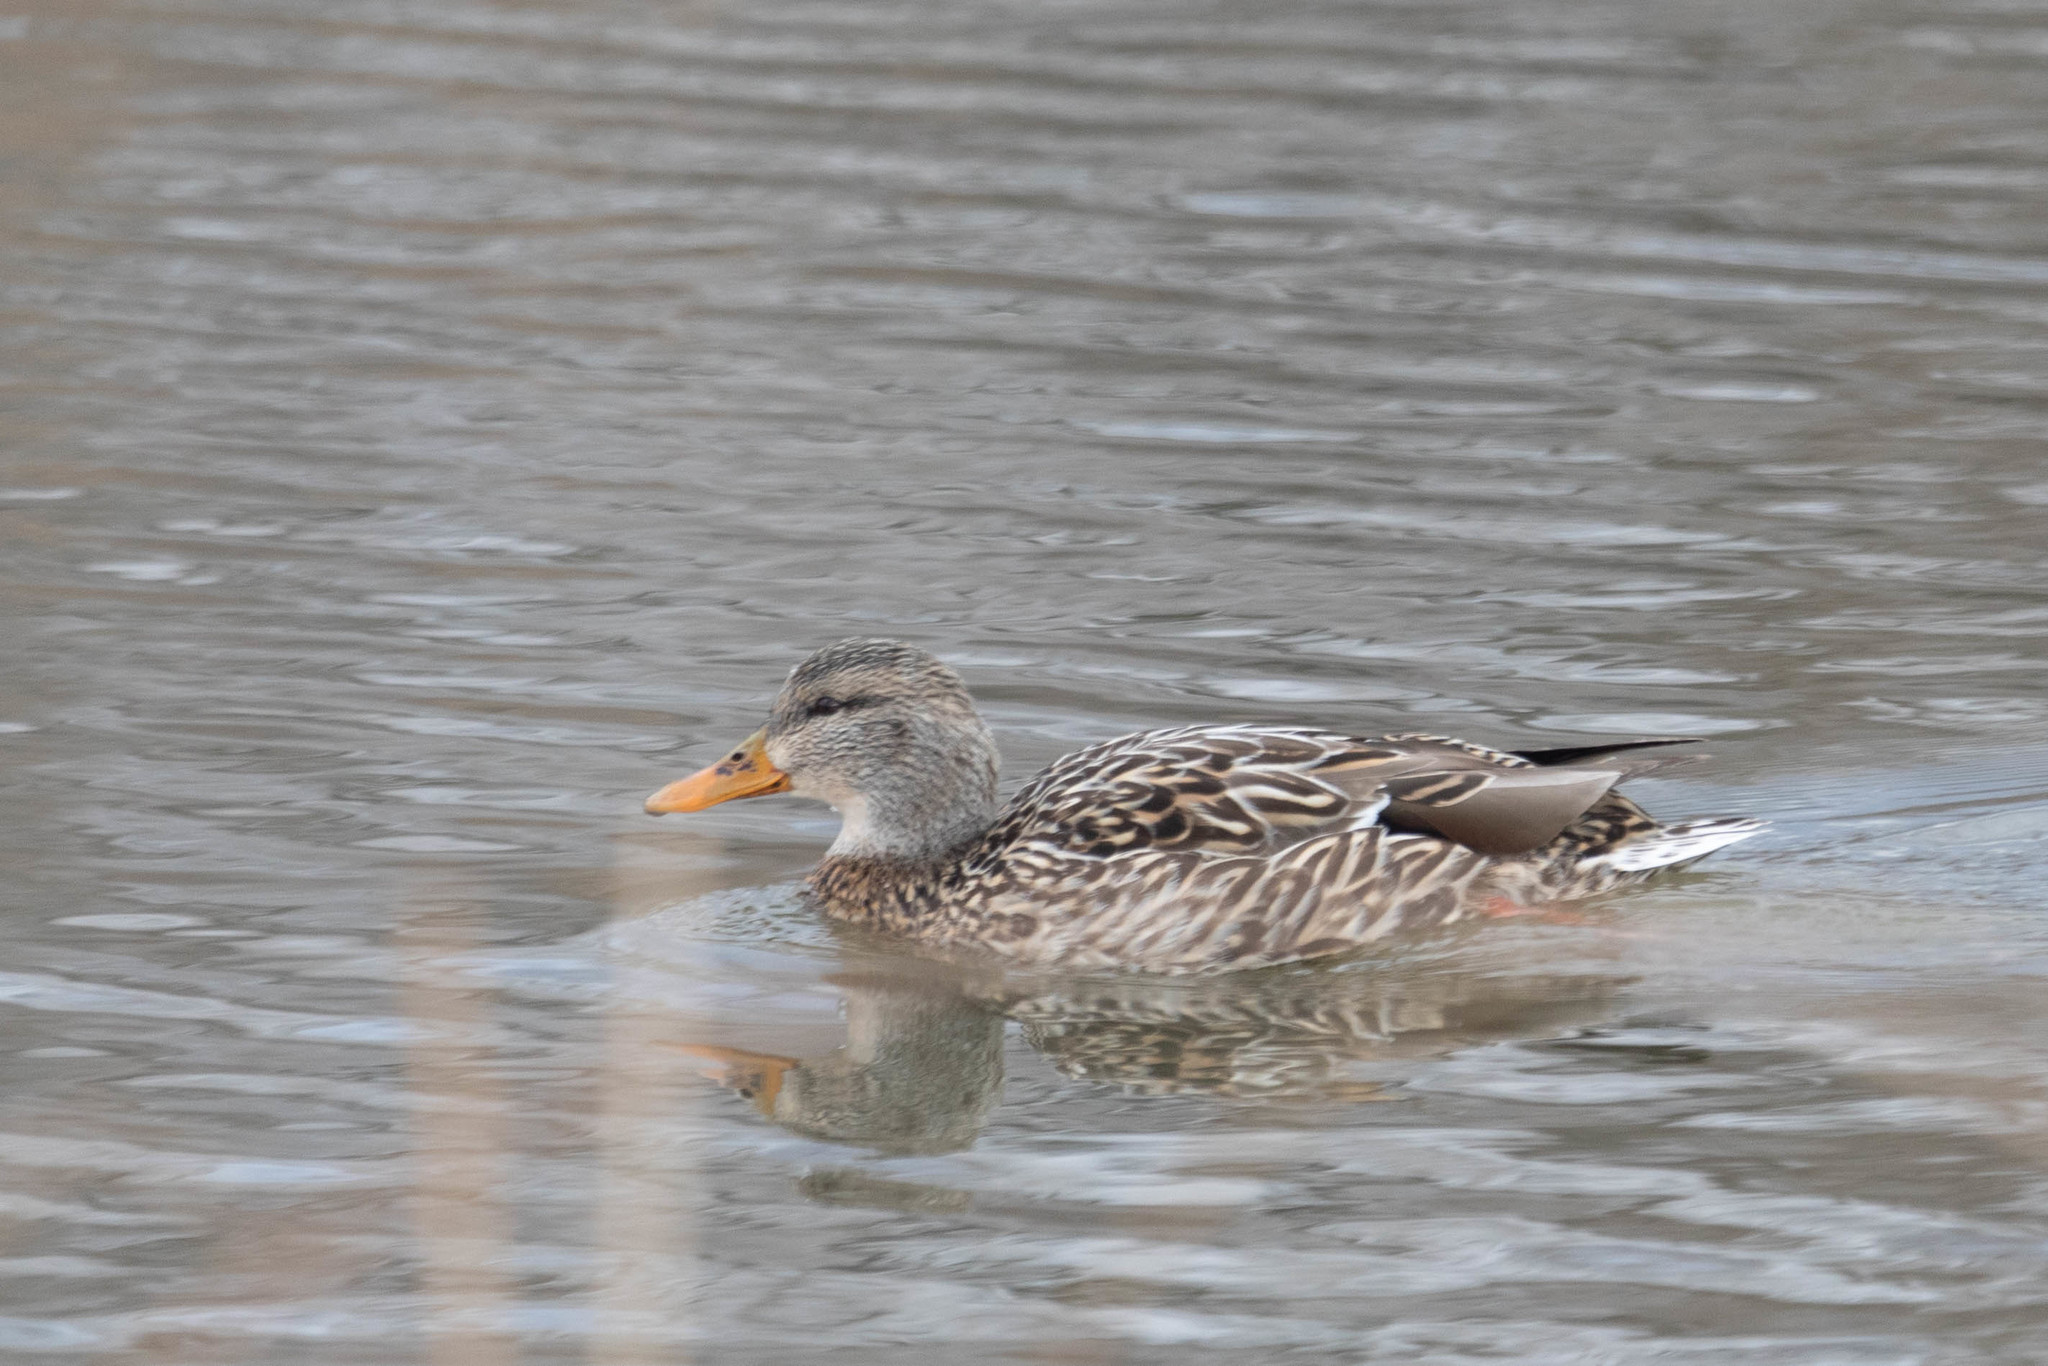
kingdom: Animalia
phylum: Chordata
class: Aves
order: Anseriformes
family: Anatidae
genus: Anas
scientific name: Anas platyrhynchos
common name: Mallard
